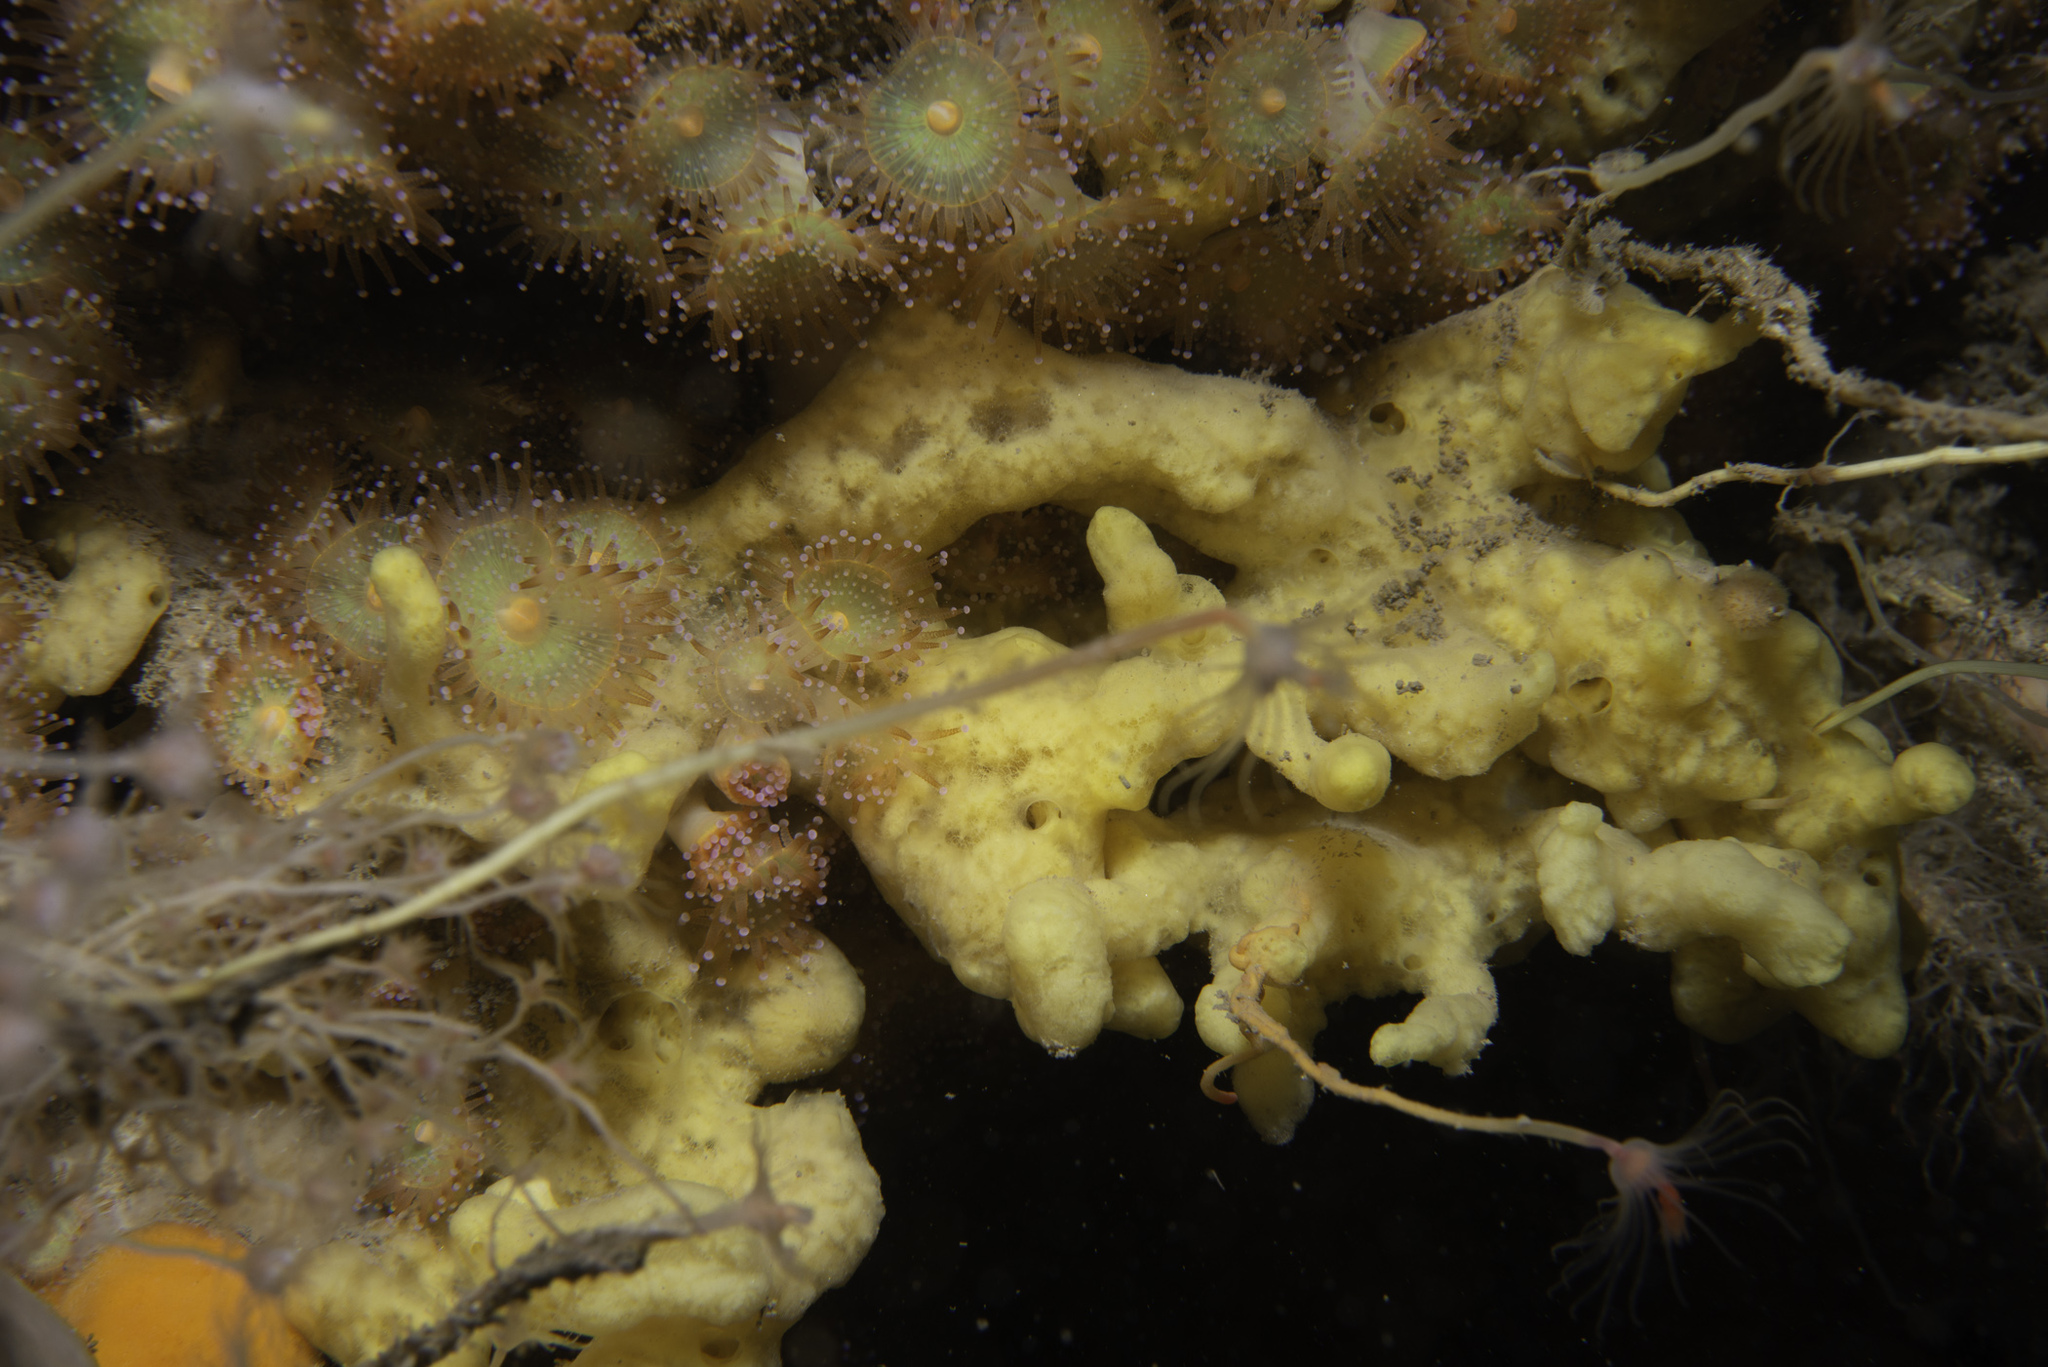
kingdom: Animalia
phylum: Porifera
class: Demospongiae
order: Poecilosclerida
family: Acarnidae
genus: Iophon
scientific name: Iophon nigricans
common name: Yellow-fingered horny sponge
